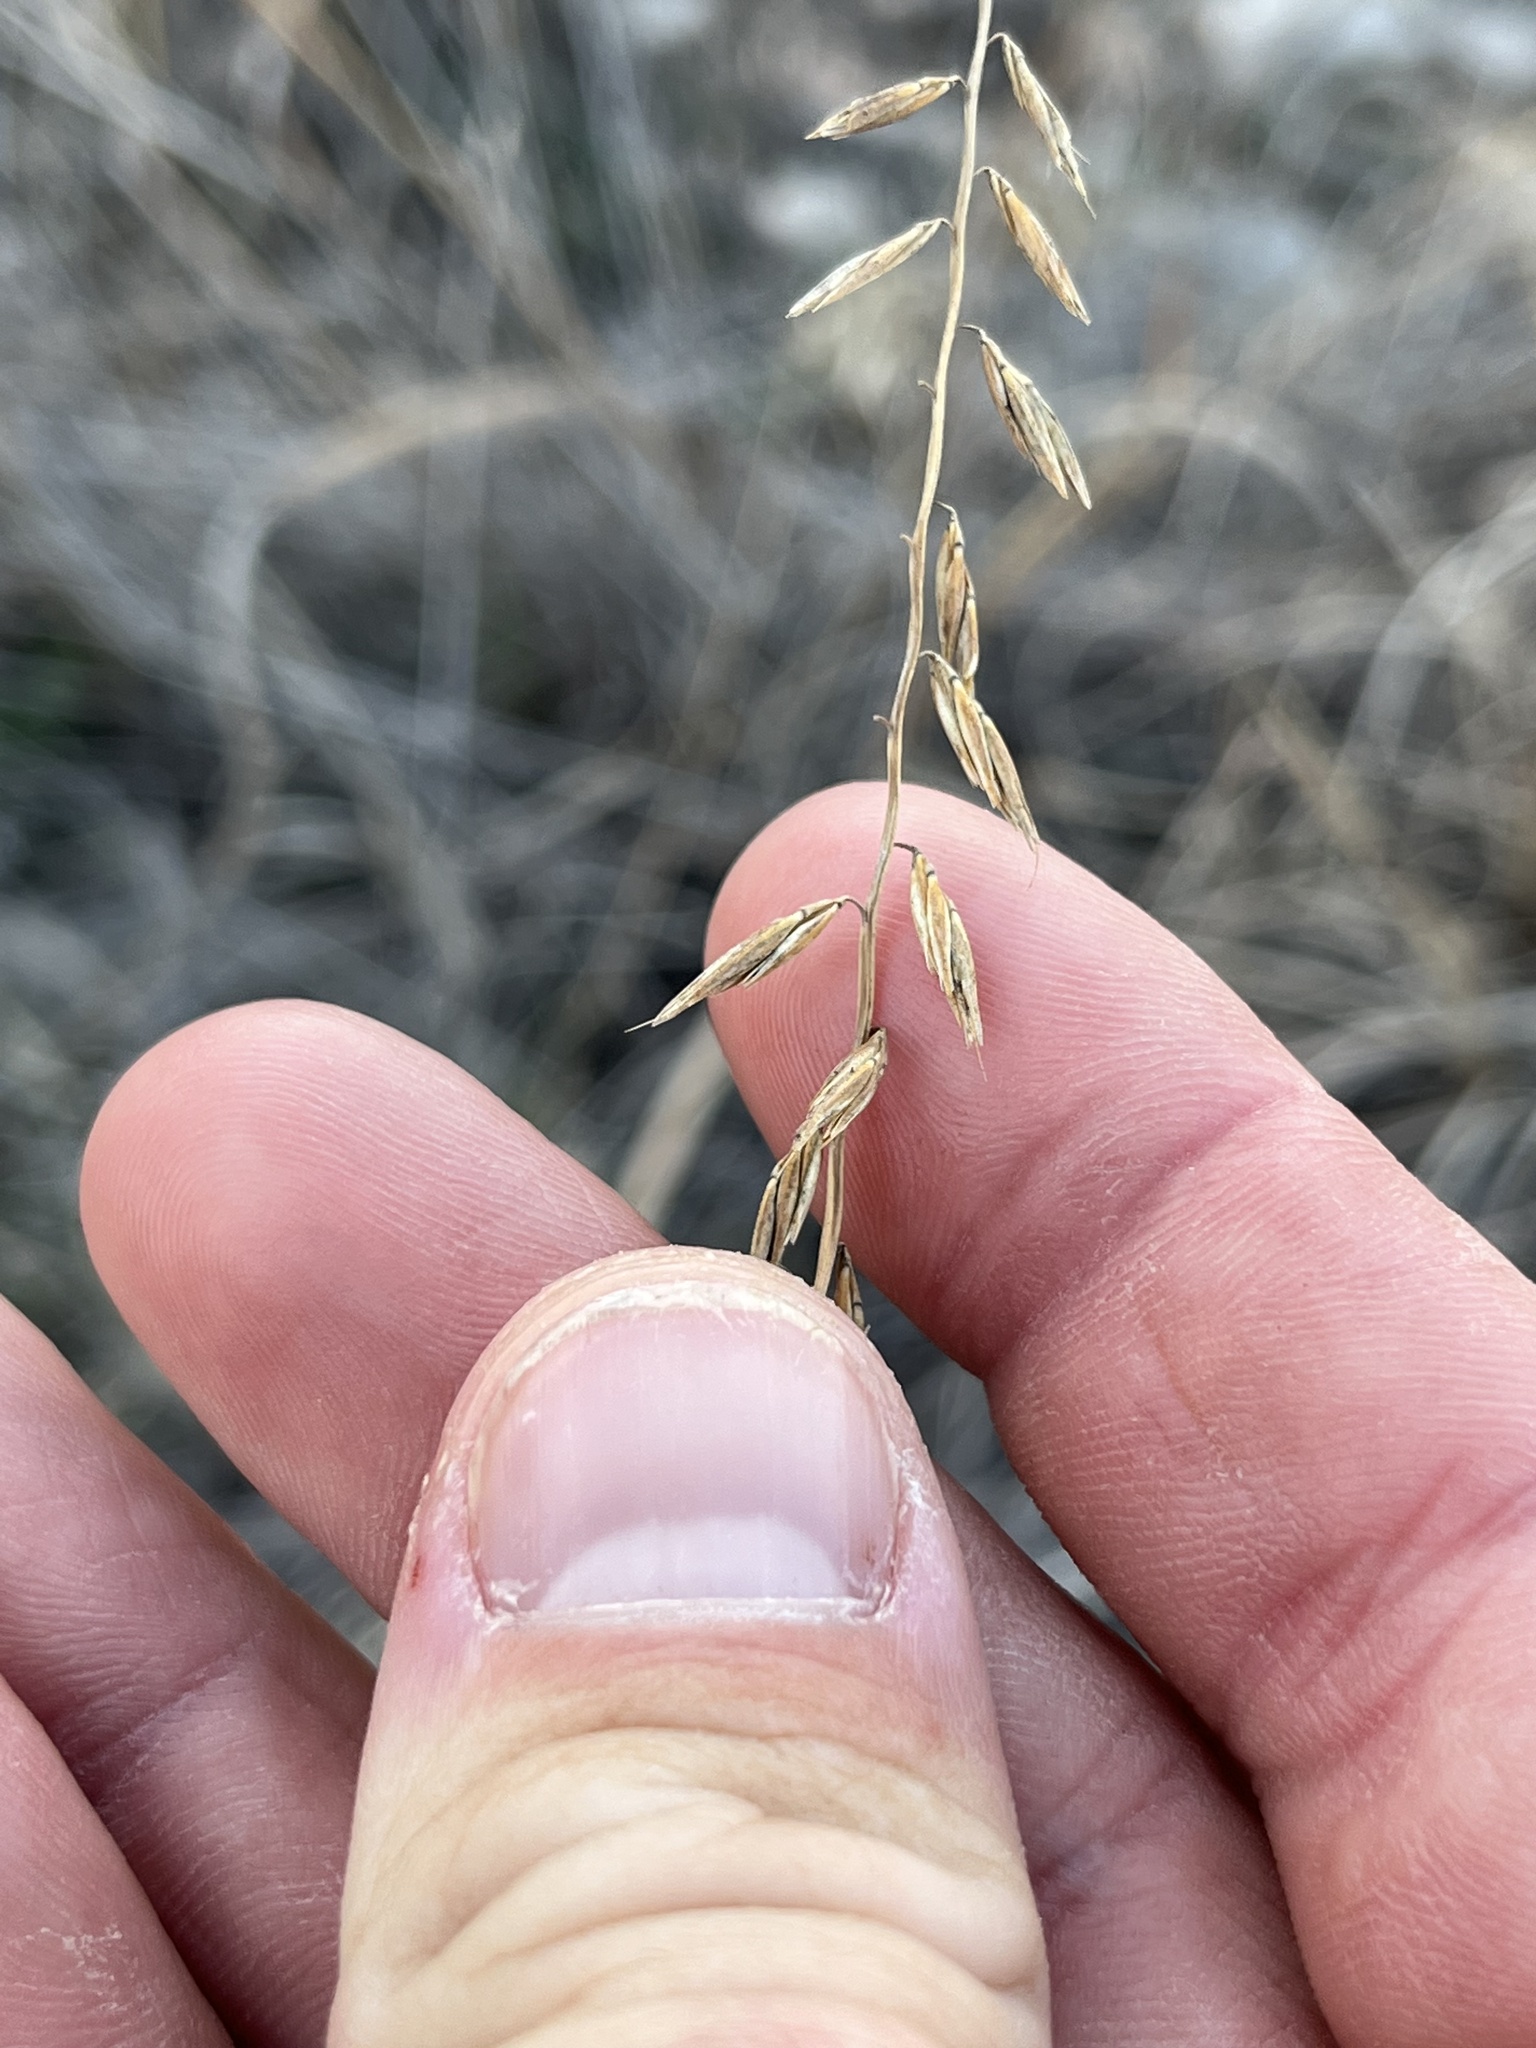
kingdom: Plantae
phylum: Tracheophyta
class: Liliopsida
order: Poales
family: Poaceae
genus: Bouteloua
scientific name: Bouteloua curtipendula
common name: Side-oats grama
